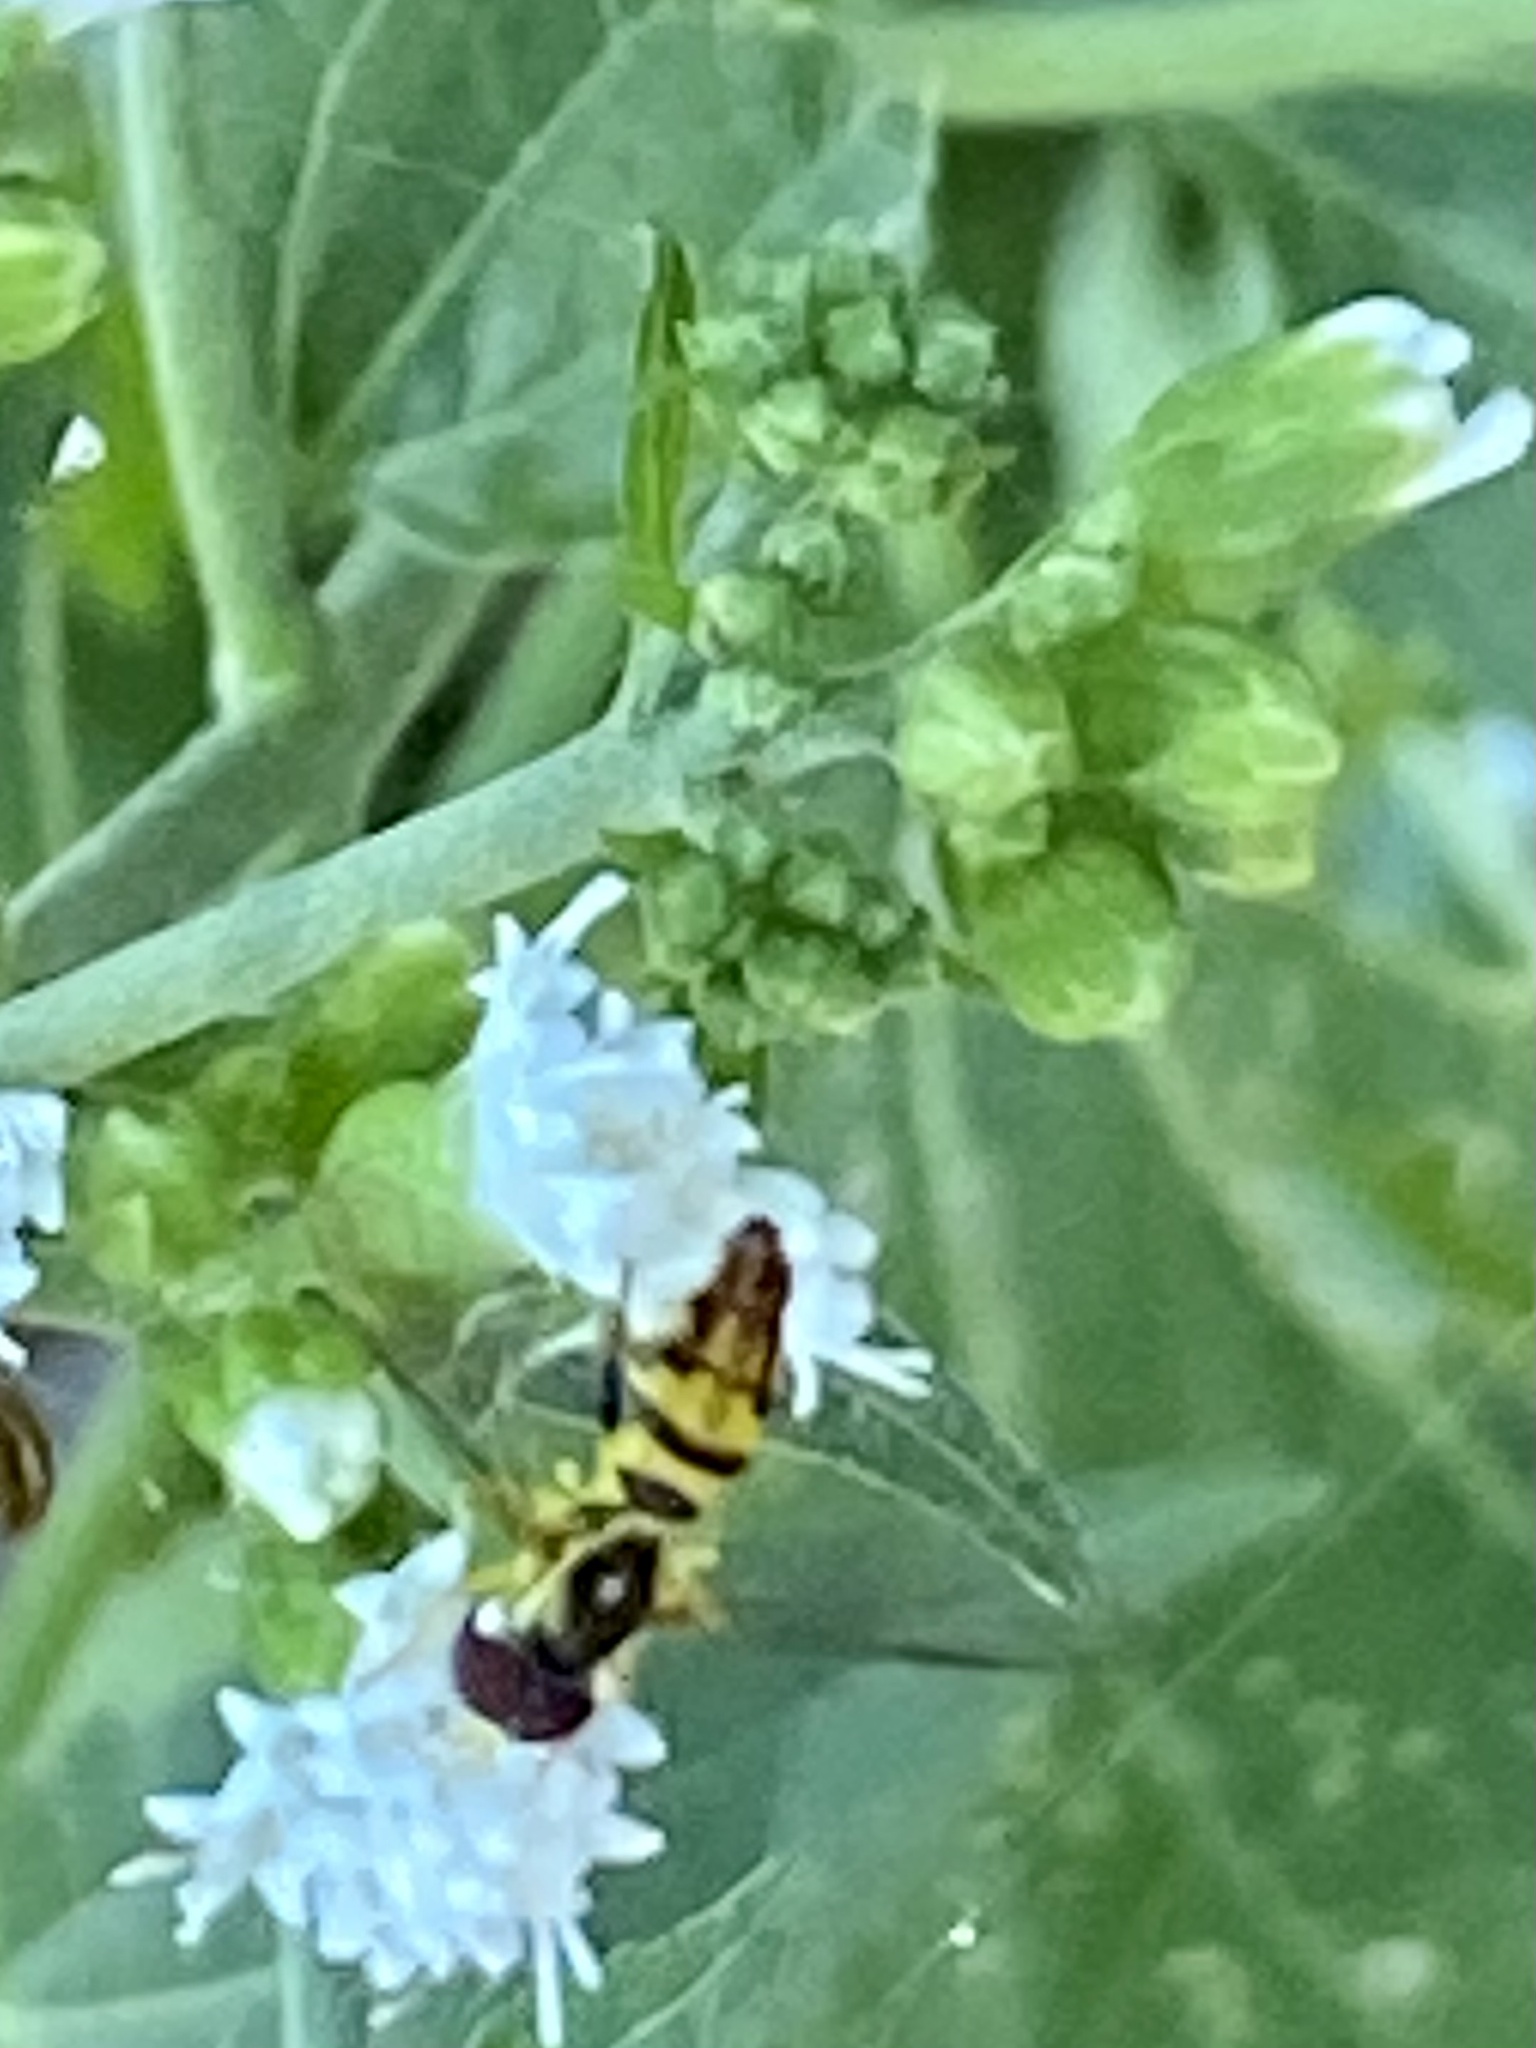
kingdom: Animalia
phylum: Arthropoda
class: Insecta
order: Diptera
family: Syrphidae
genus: Toxomerus
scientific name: Toxomerus geminatus
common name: Eastern calligrapher
